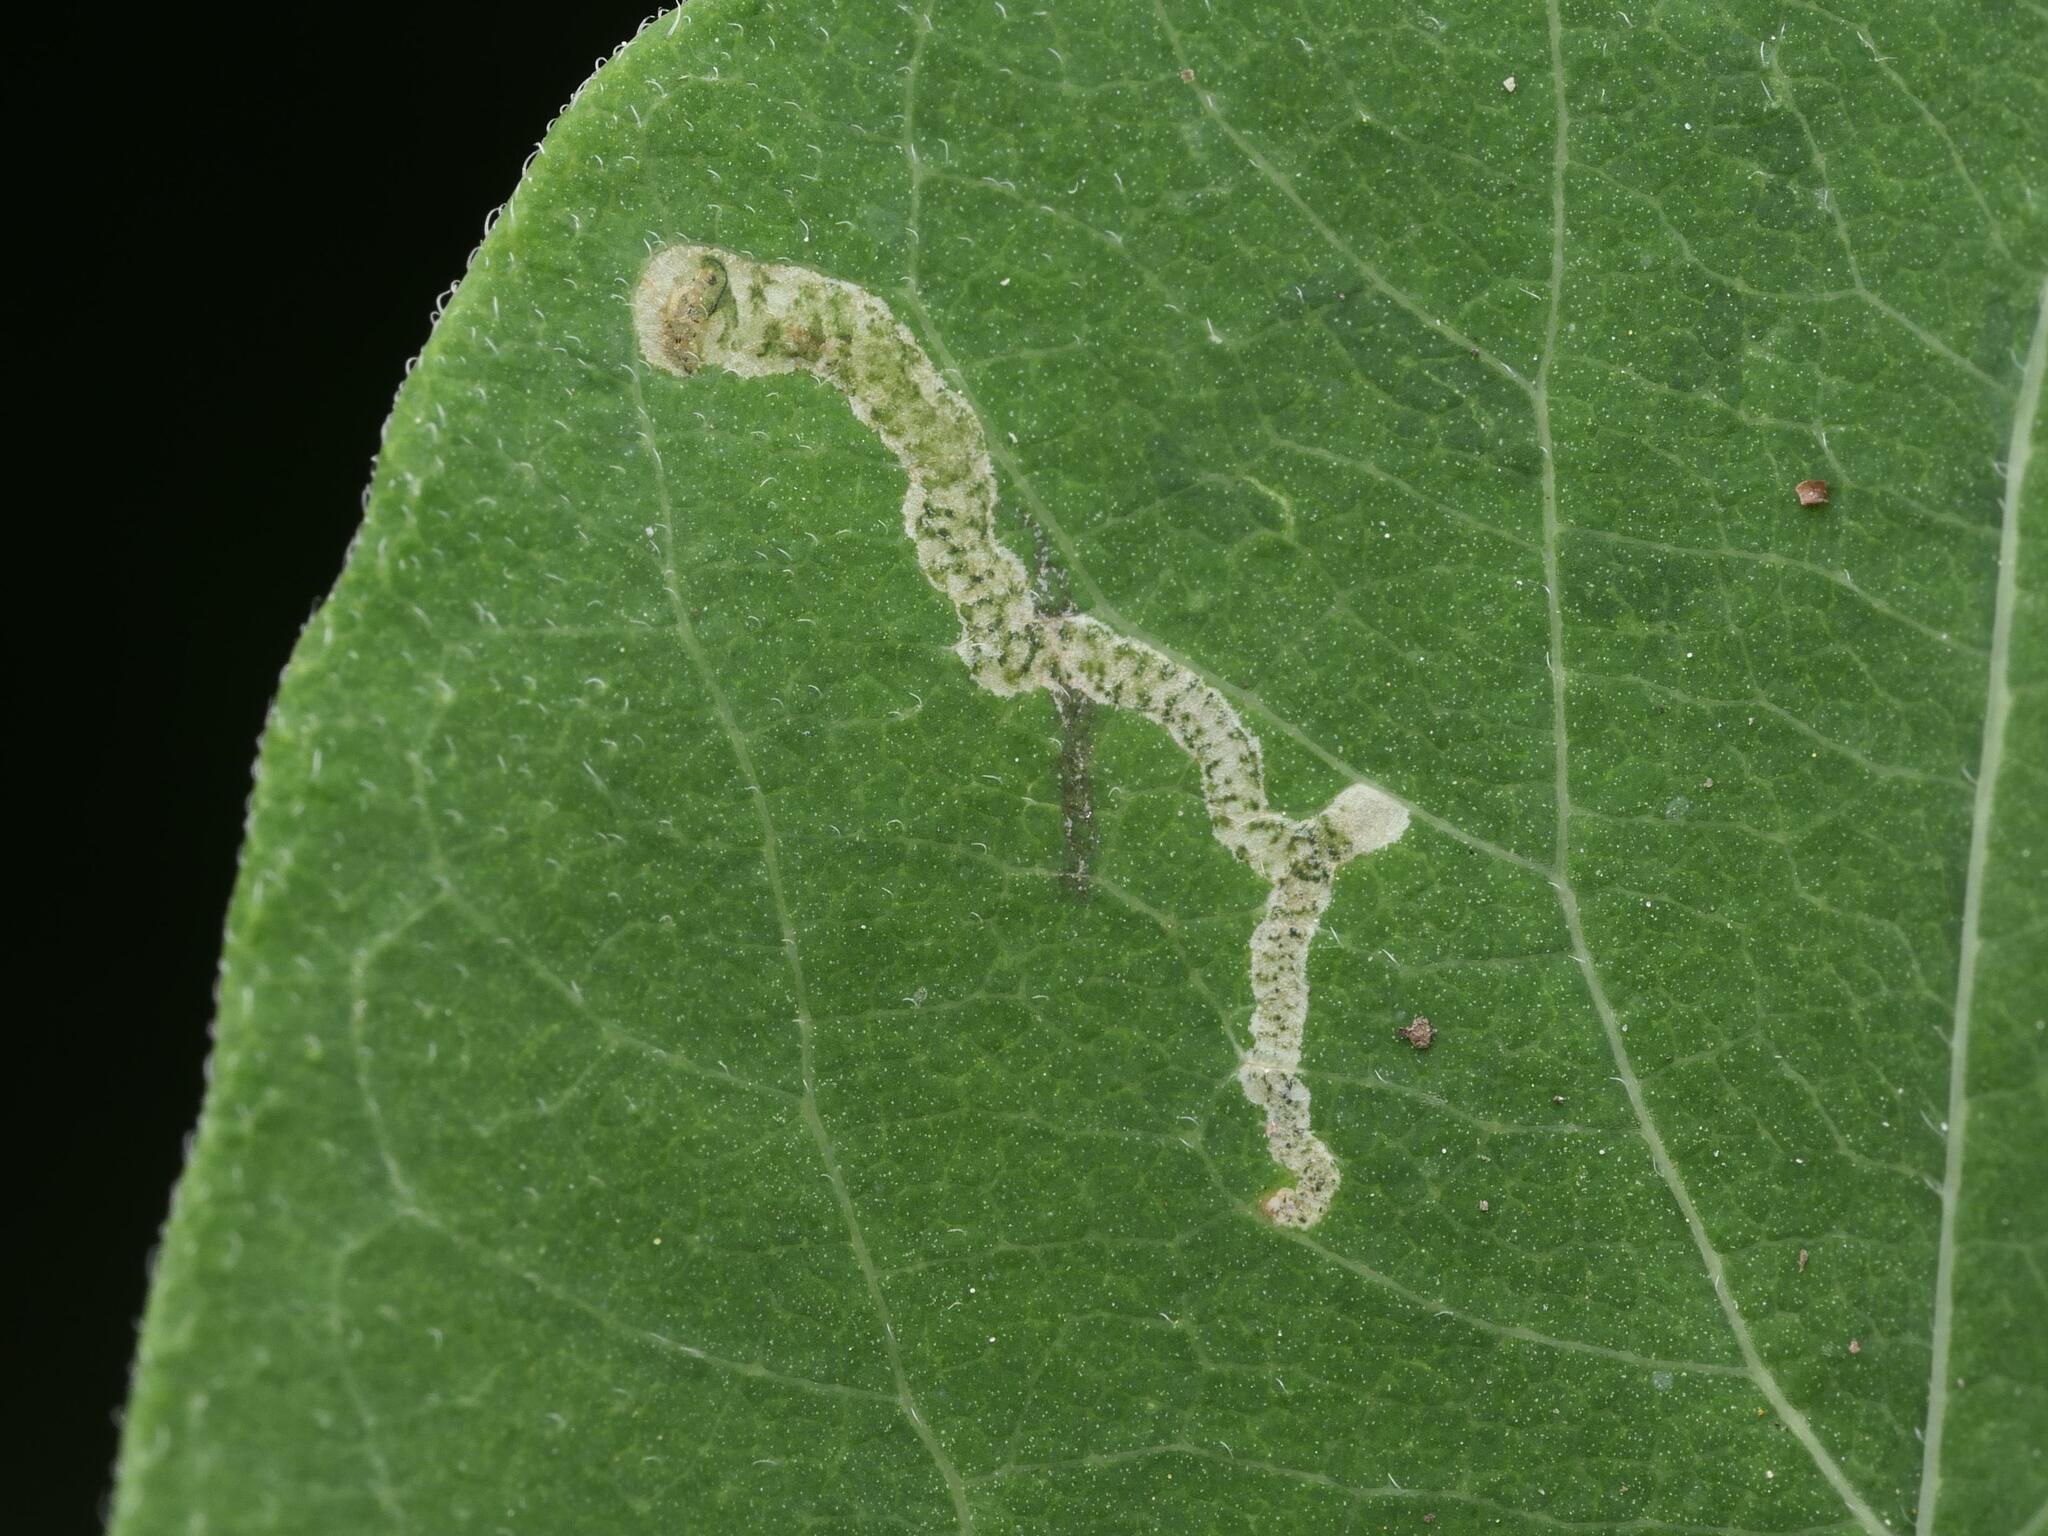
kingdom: Animalia
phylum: Arthropoda
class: Insecta
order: Diptera
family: Agromyzidae
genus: Aulagromyza
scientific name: Aulagromyza luteoscutellata
